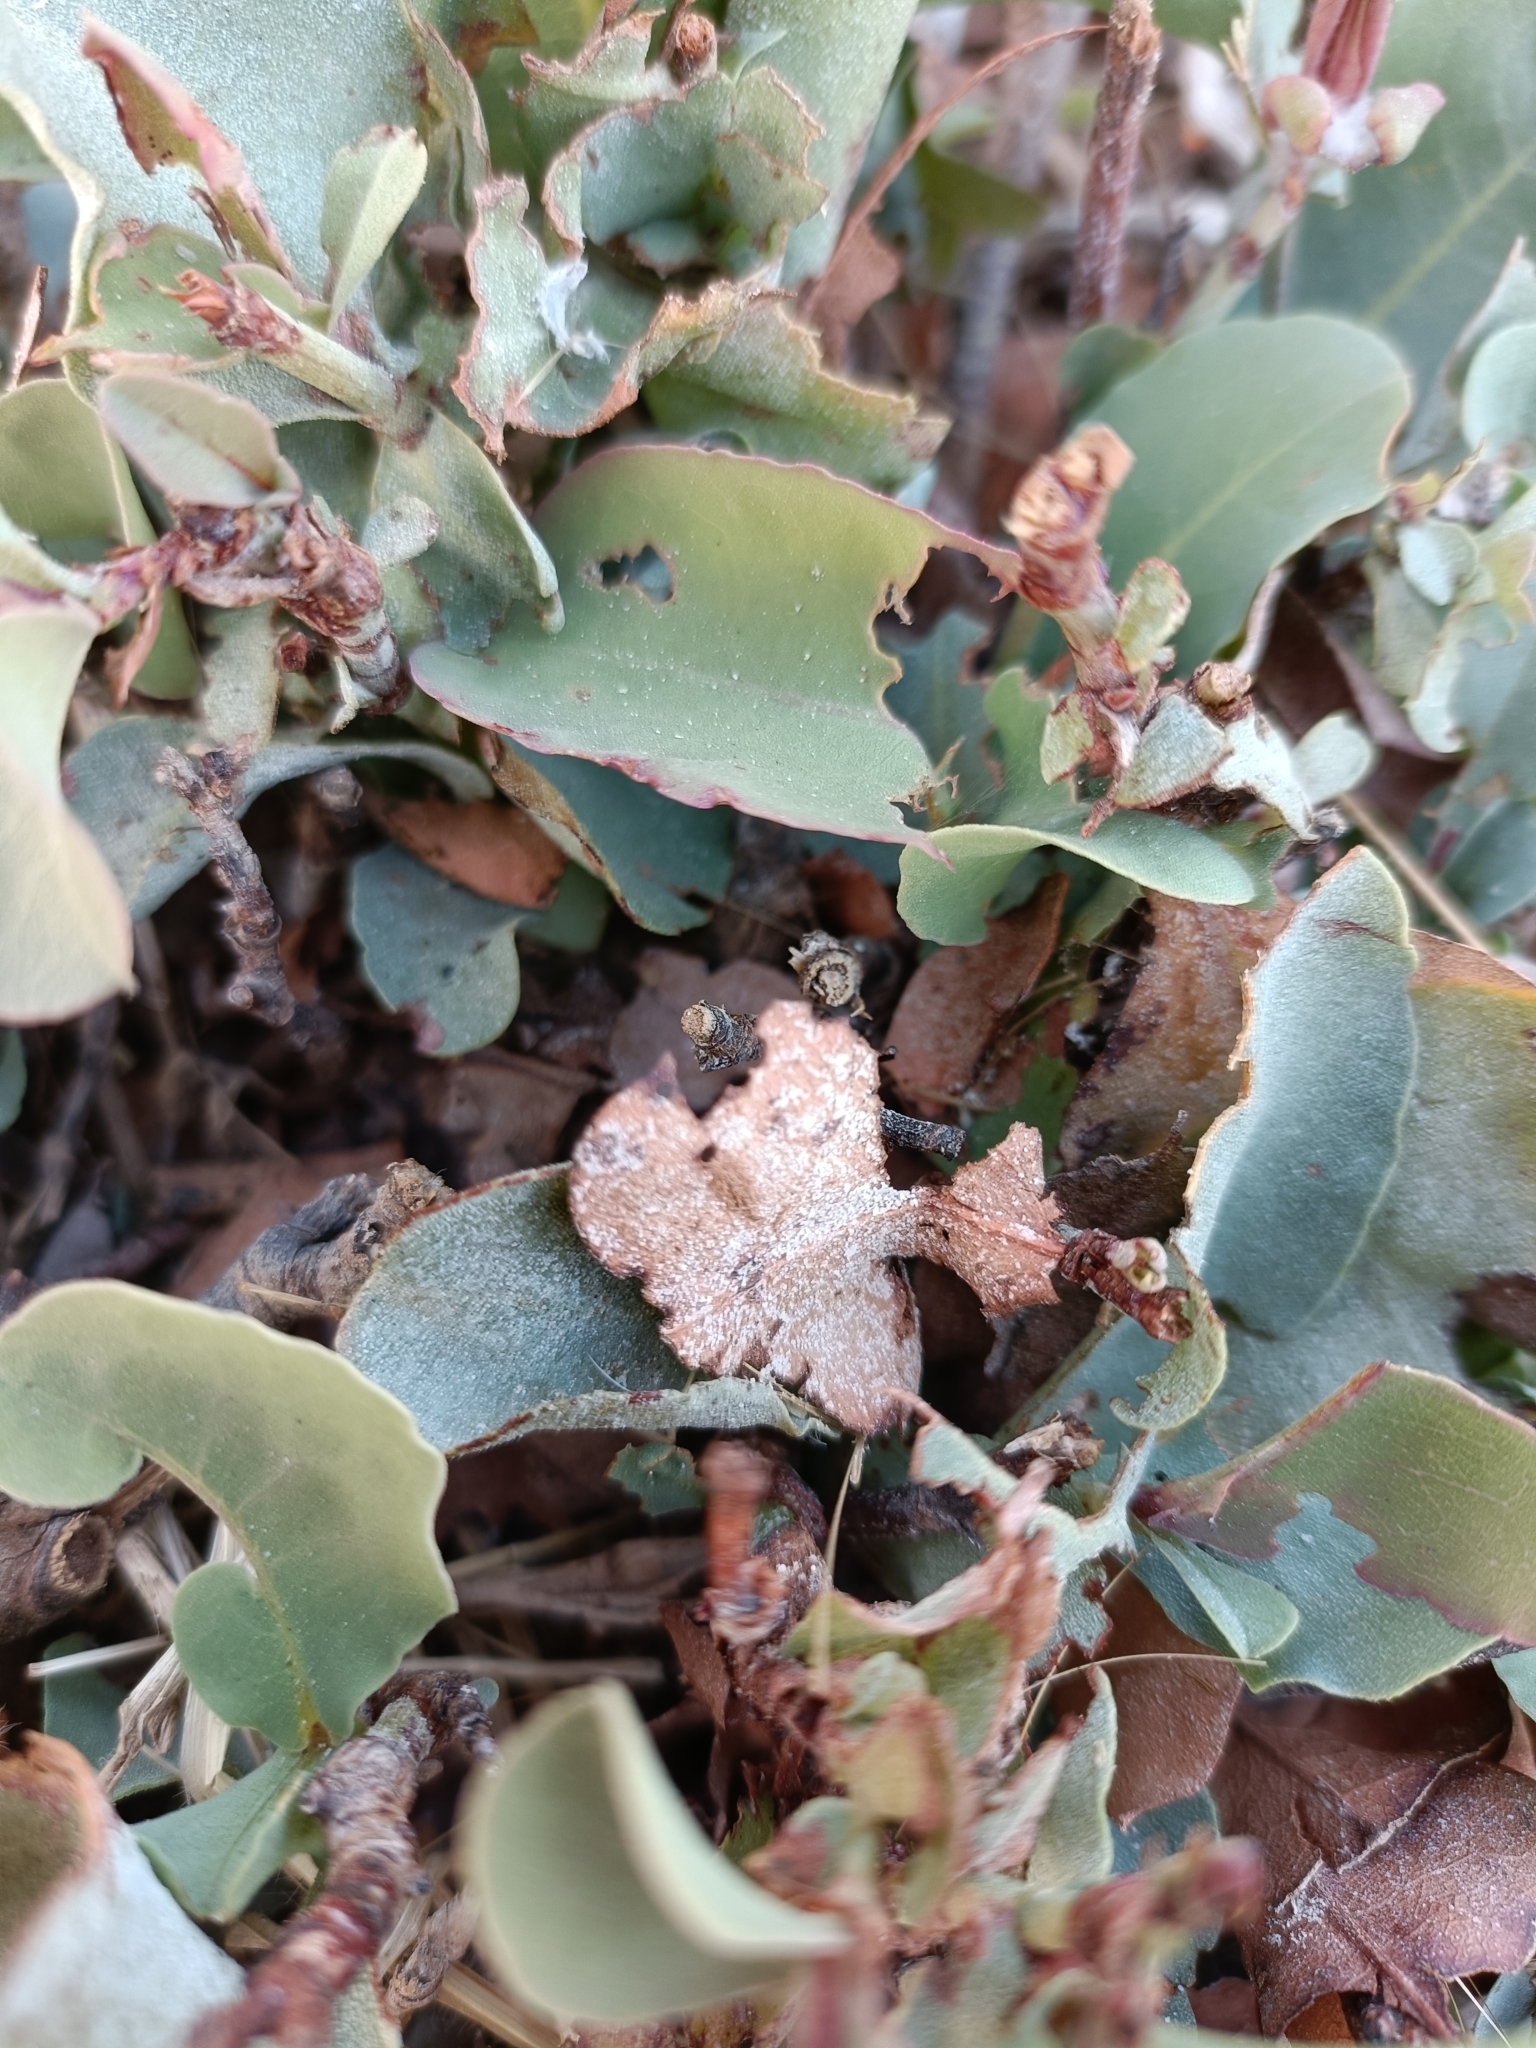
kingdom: Plantae
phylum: Tracheophyta
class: Magnoliopsida
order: Caryophyllales
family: Plumbaginaceae
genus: Dyerophytum
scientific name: Dyerophytum indicum
